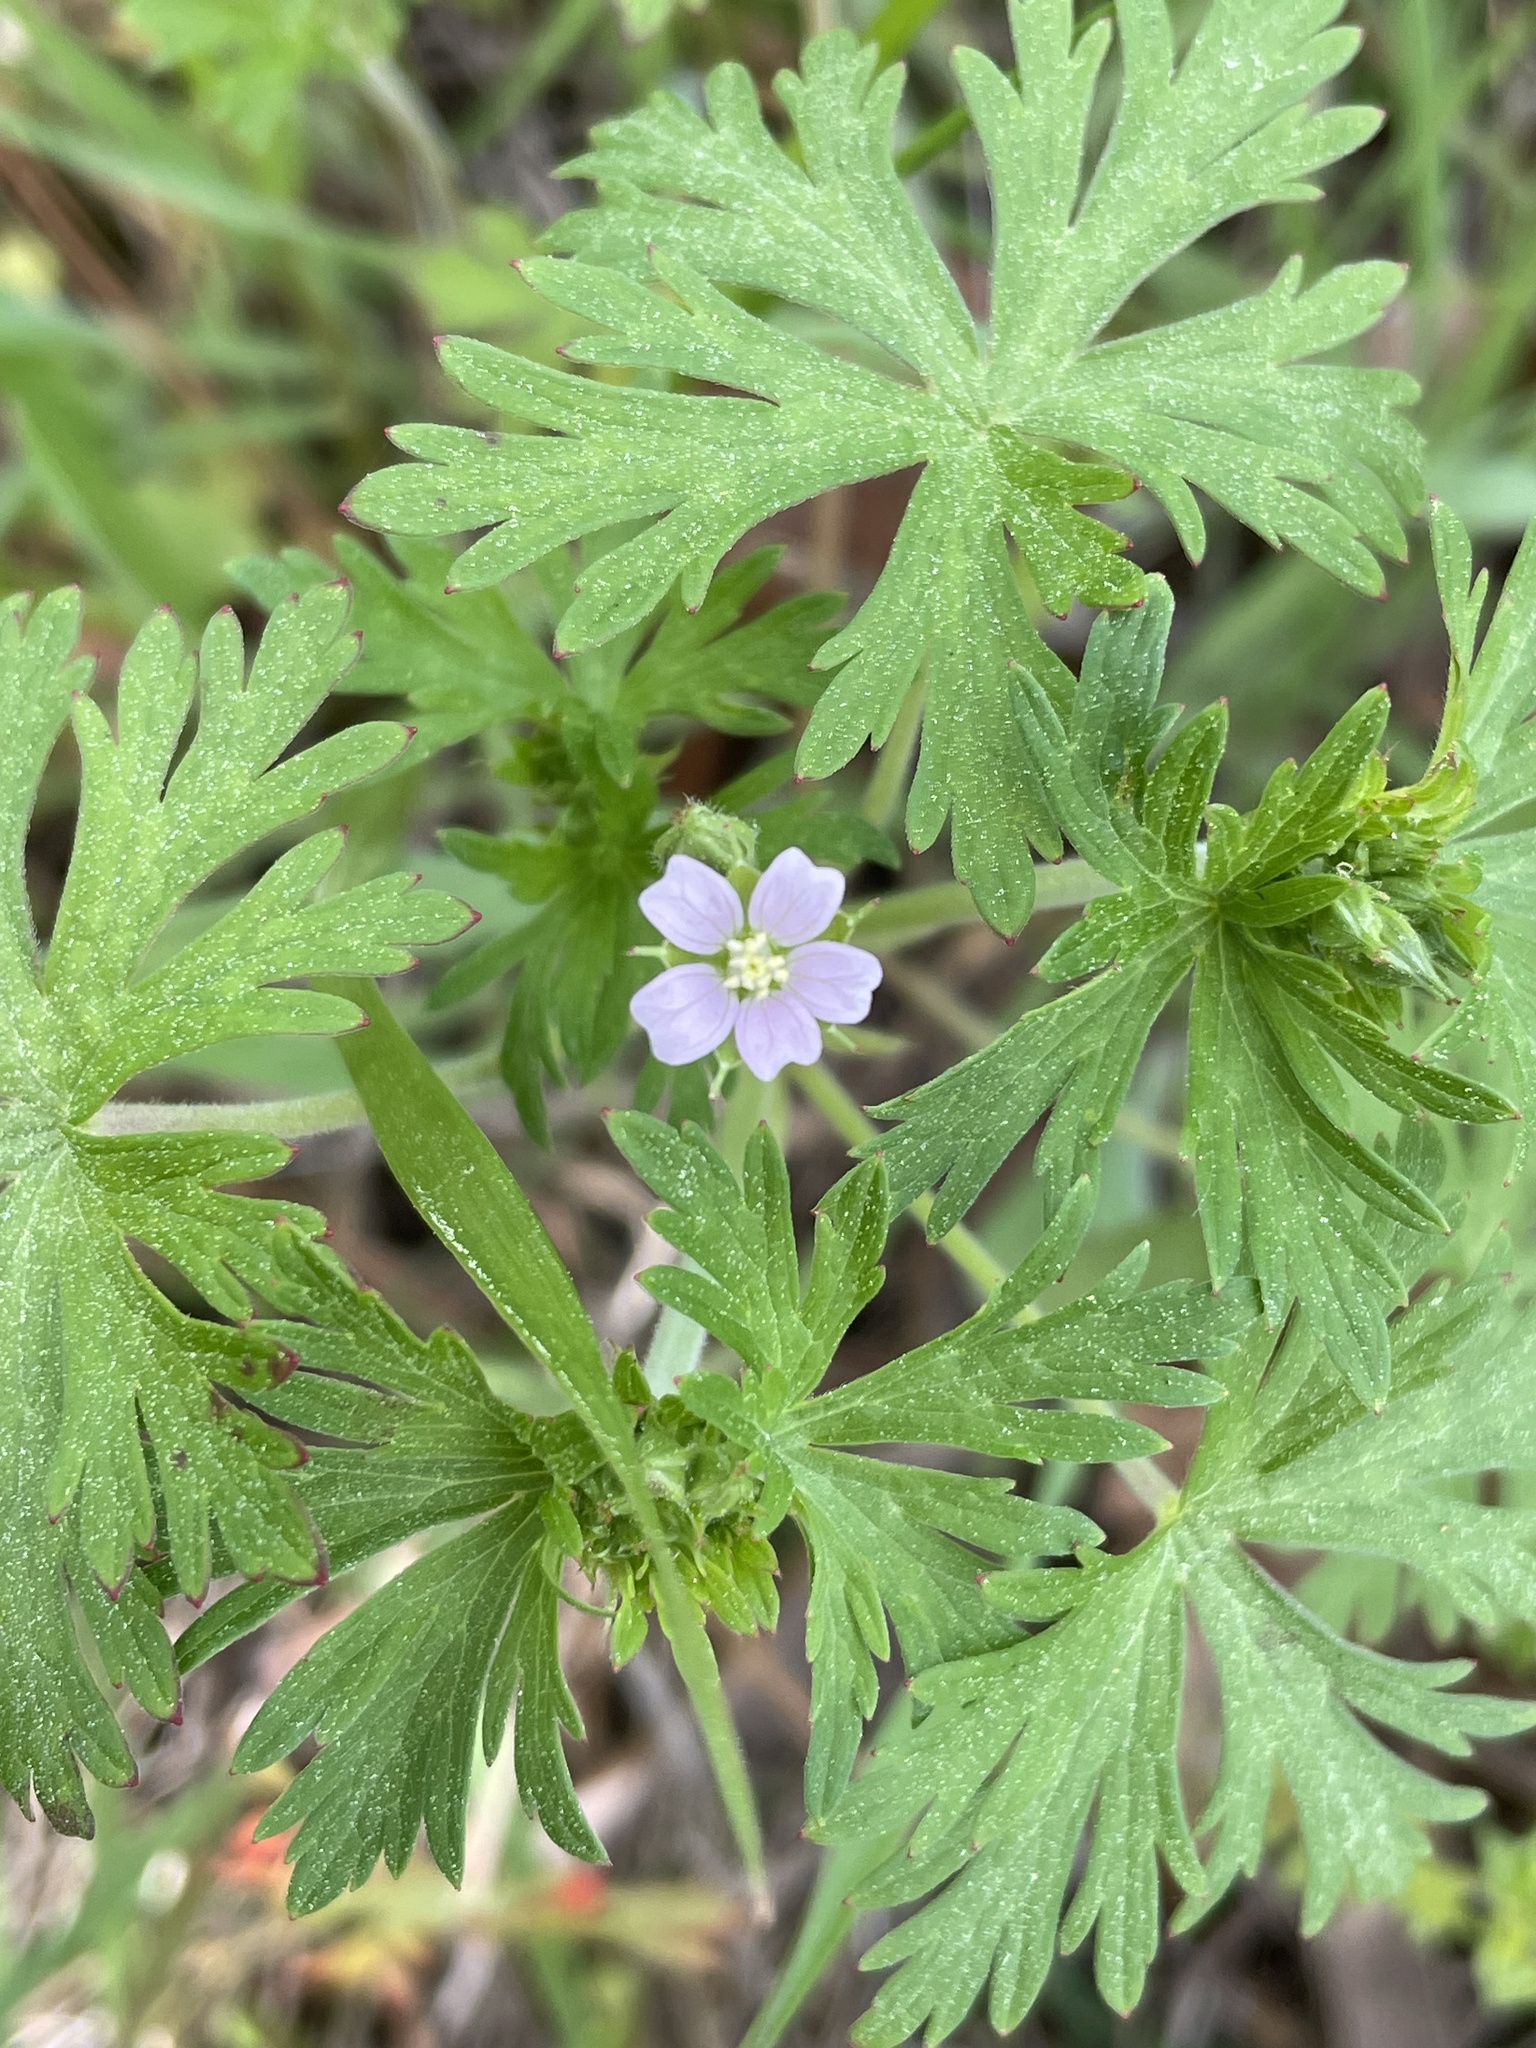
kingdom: Plantae
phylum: Tracheophyta
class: Magnoliopsida
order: Geraniales
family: Geraniaceae
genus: Geranium
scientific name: Geranium carolinianum
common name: Carolina crane's-bill
